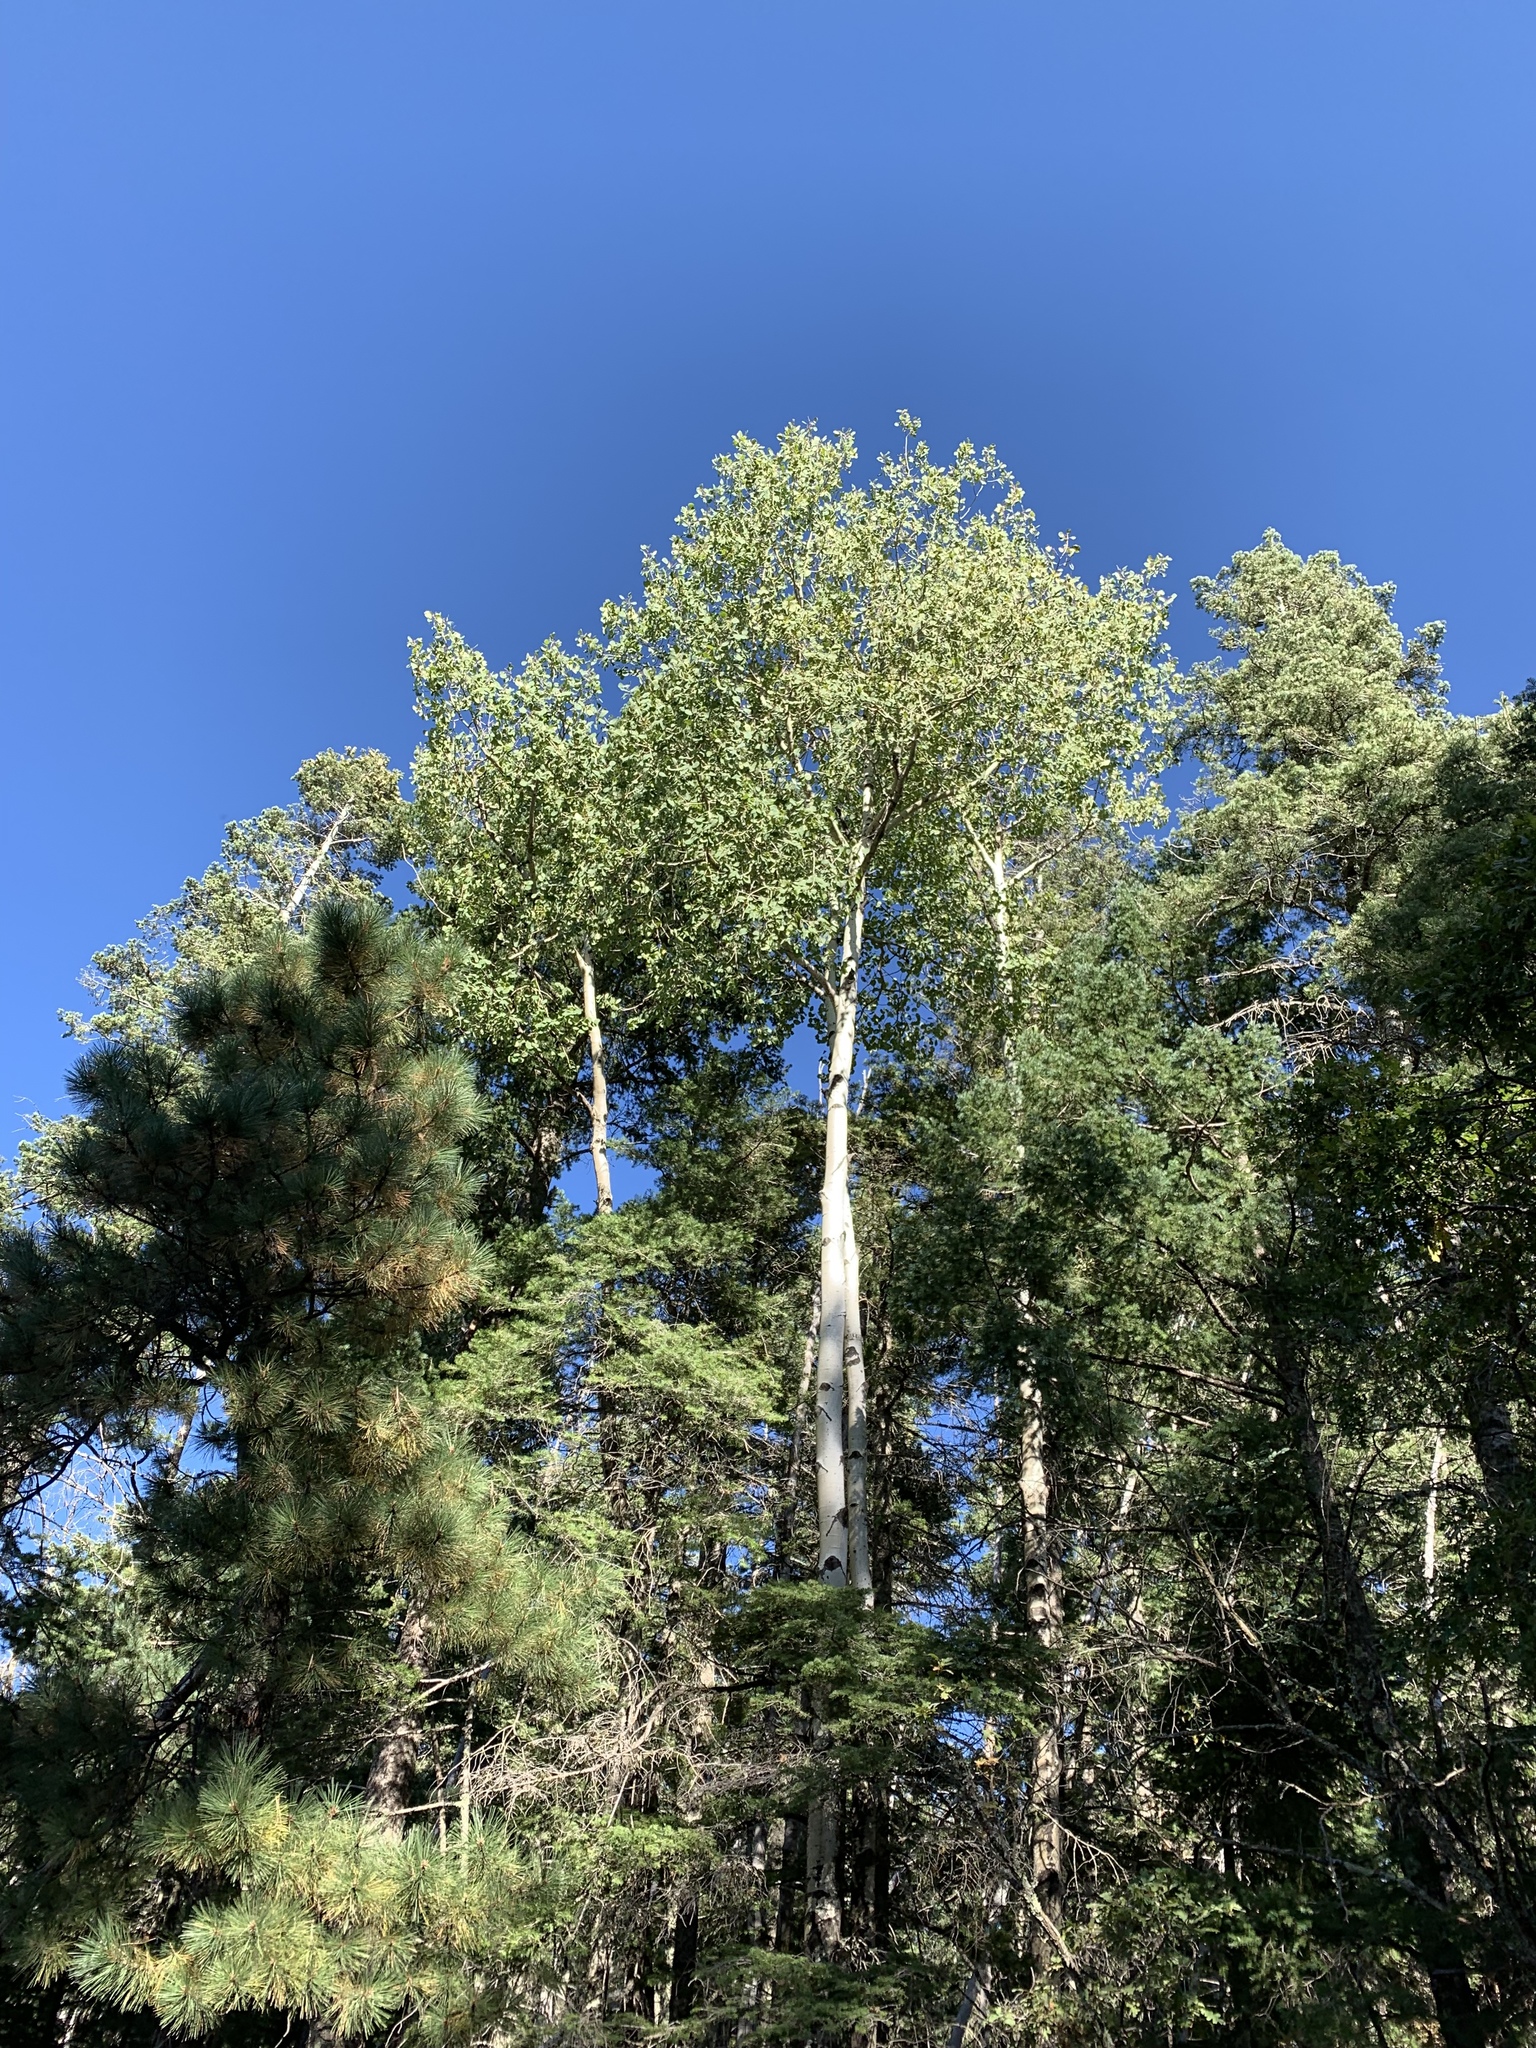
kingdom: Plantae
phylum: Tracheophyta
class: Magnoliopsida
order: Malpighiales
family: Salicaceae
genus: Populus
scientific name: Populus tremuloides
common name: Quaking aspen
